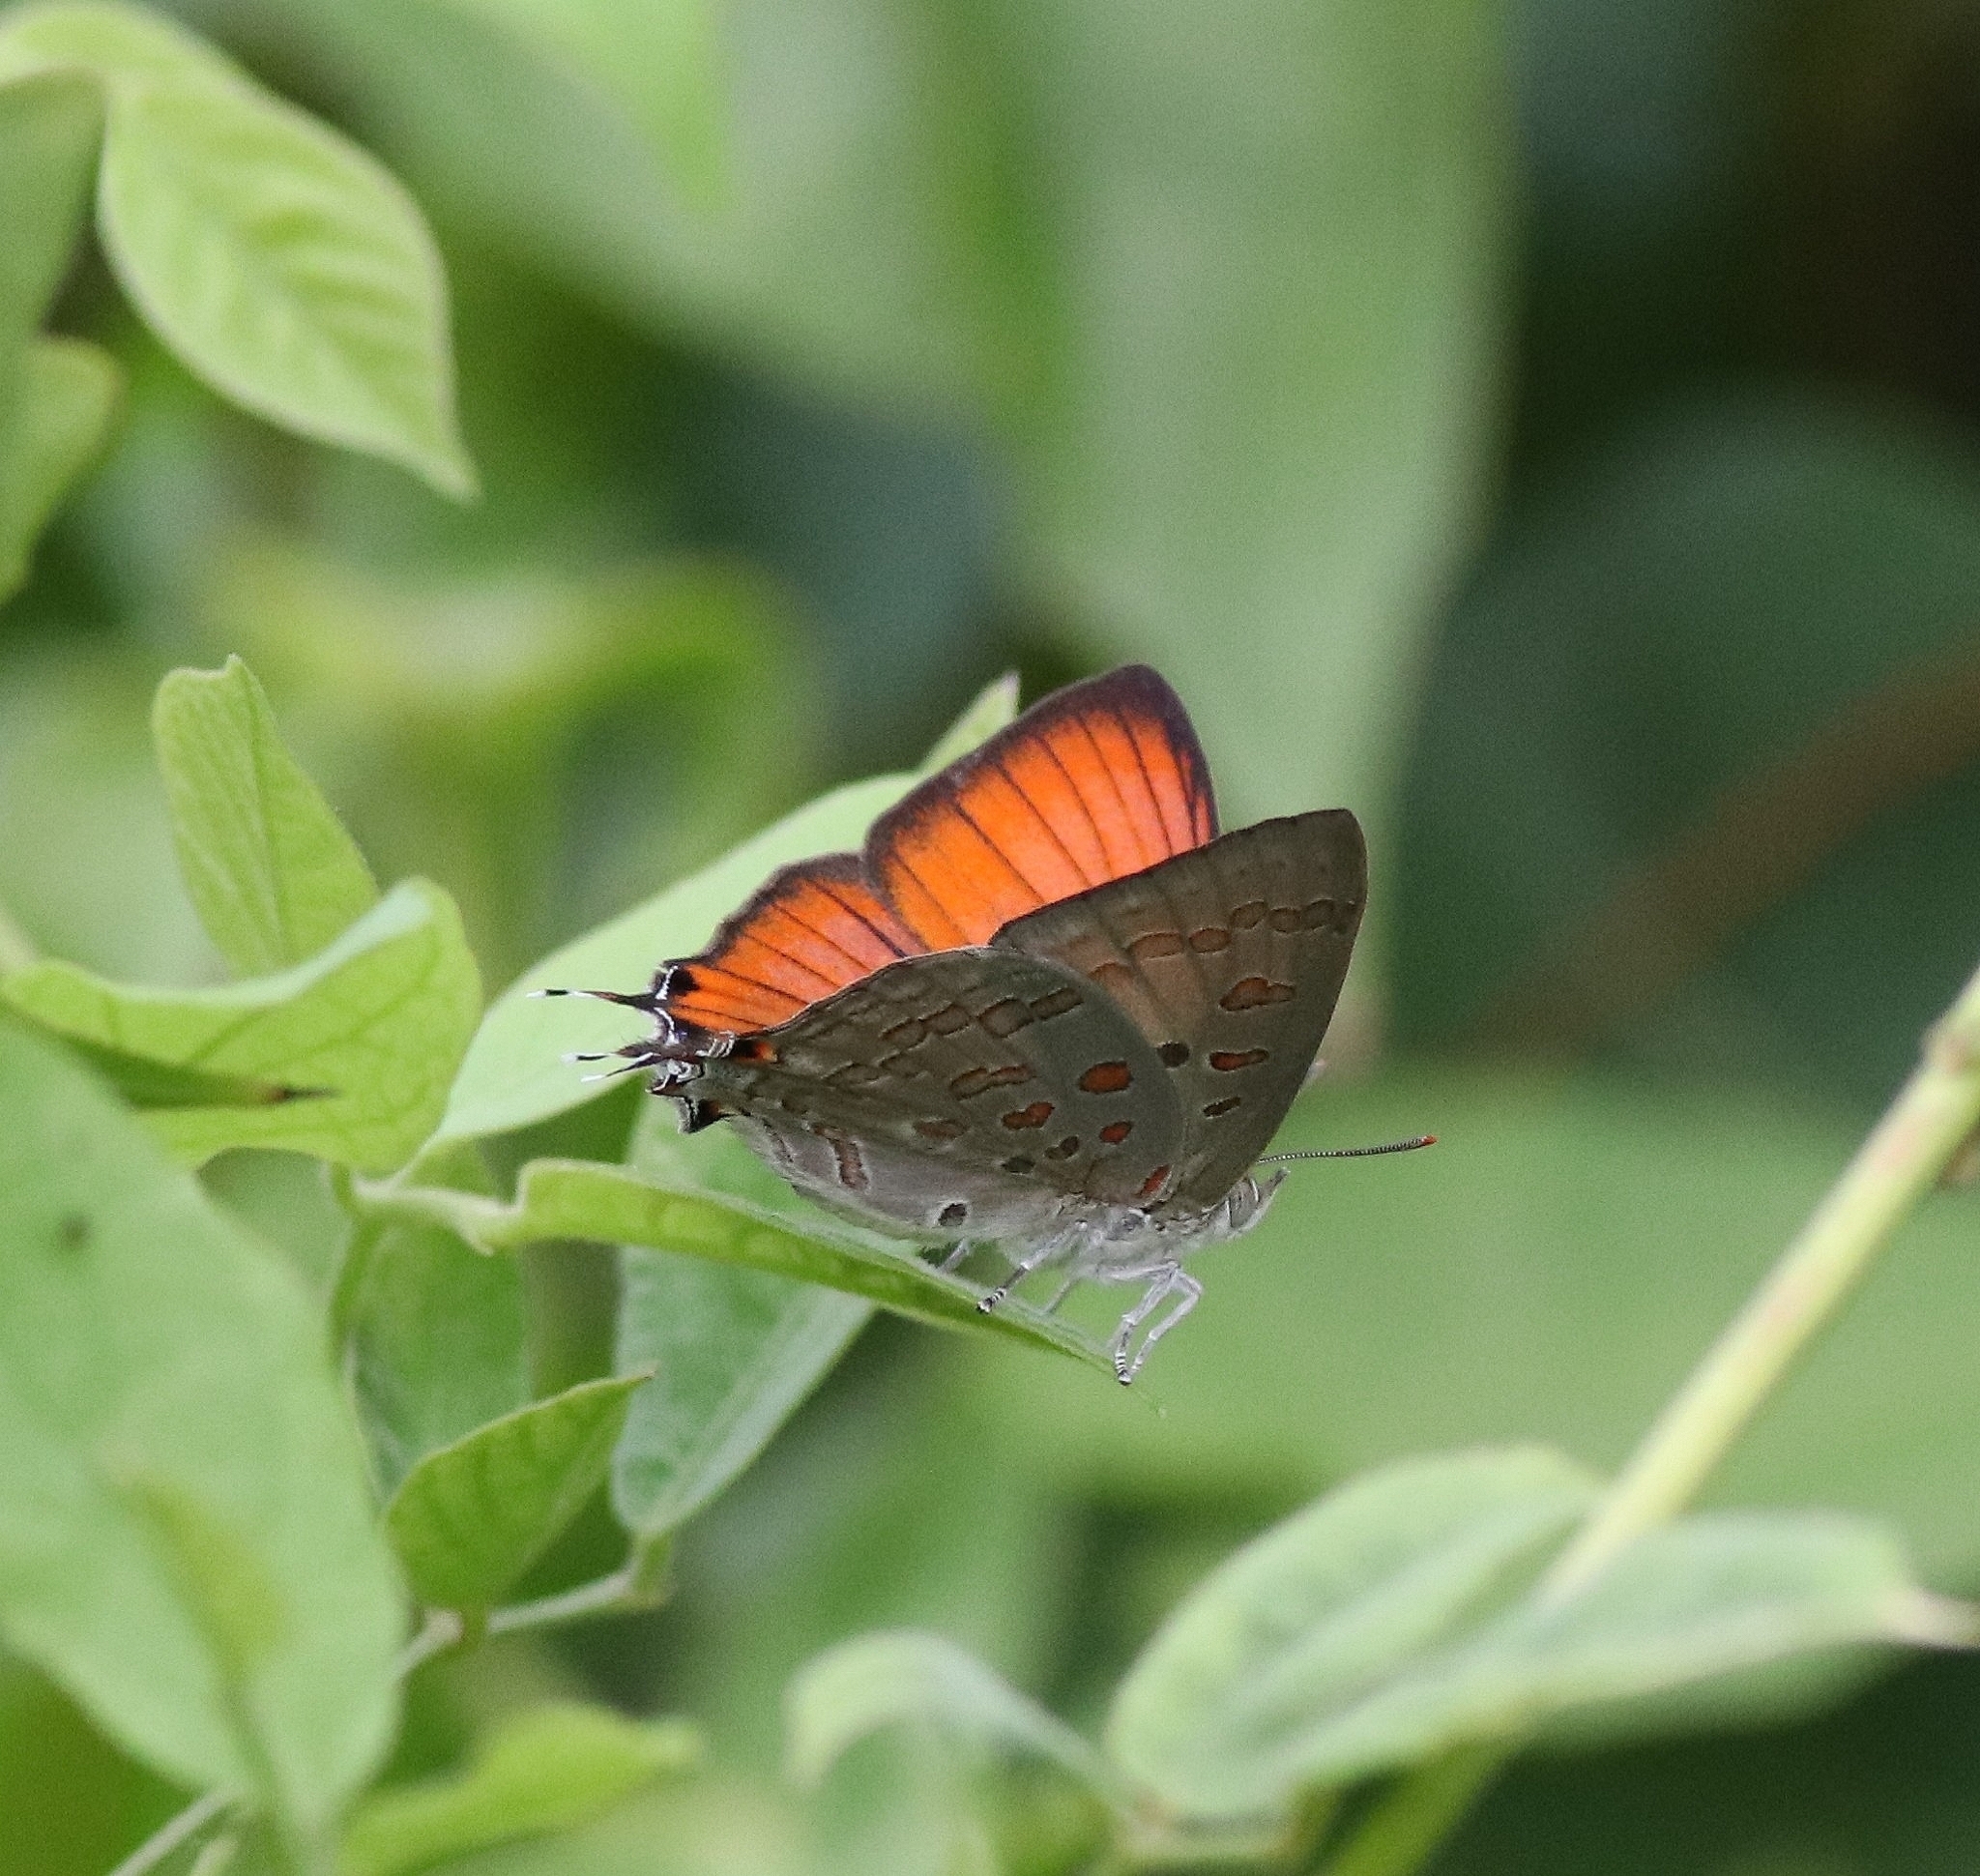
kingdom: Animalia
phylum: Arthropoda
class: Insecta
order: Lepidoptera
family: Lycaenidae
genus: Zesius
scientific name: Zesius chrysomallus
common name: Redspot
